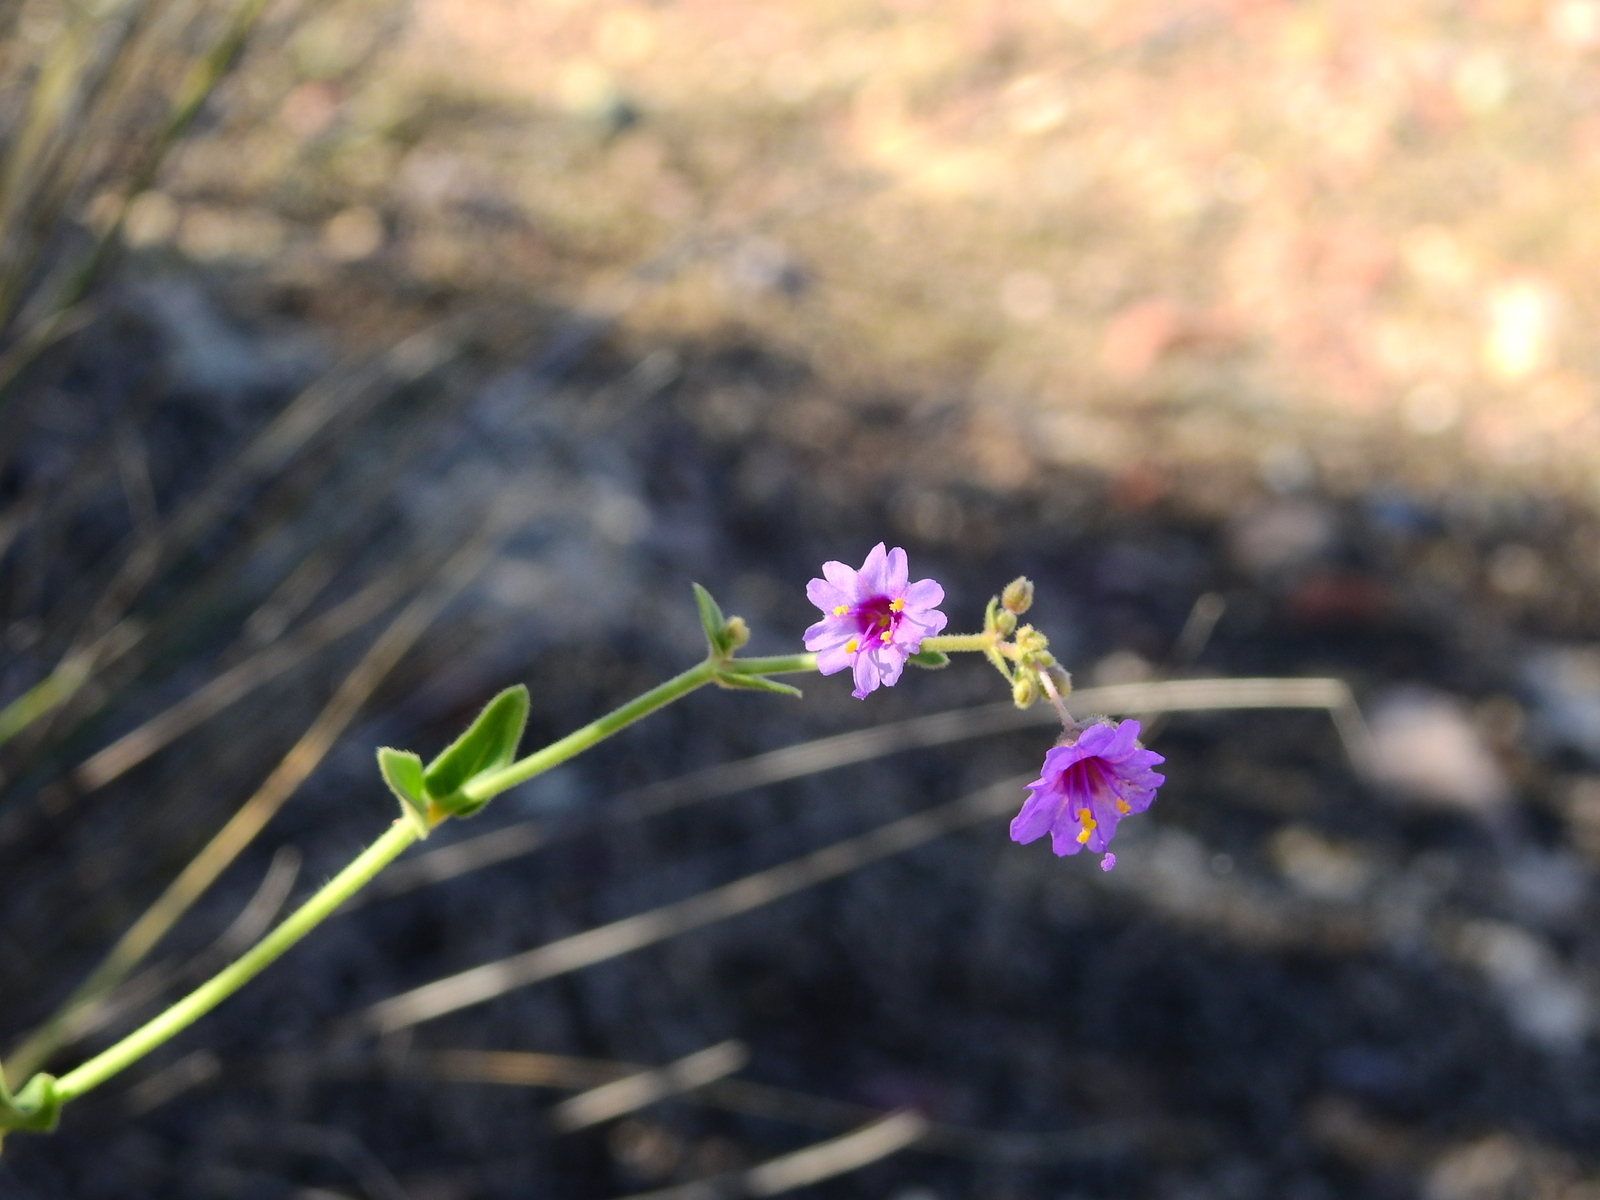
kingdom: Plantae
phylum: Tracheophyta
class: Magnoliopsida
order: Caryophyllales
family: Nyctaginaceae
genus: Mirabilis
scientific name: Mirabilis ovata
